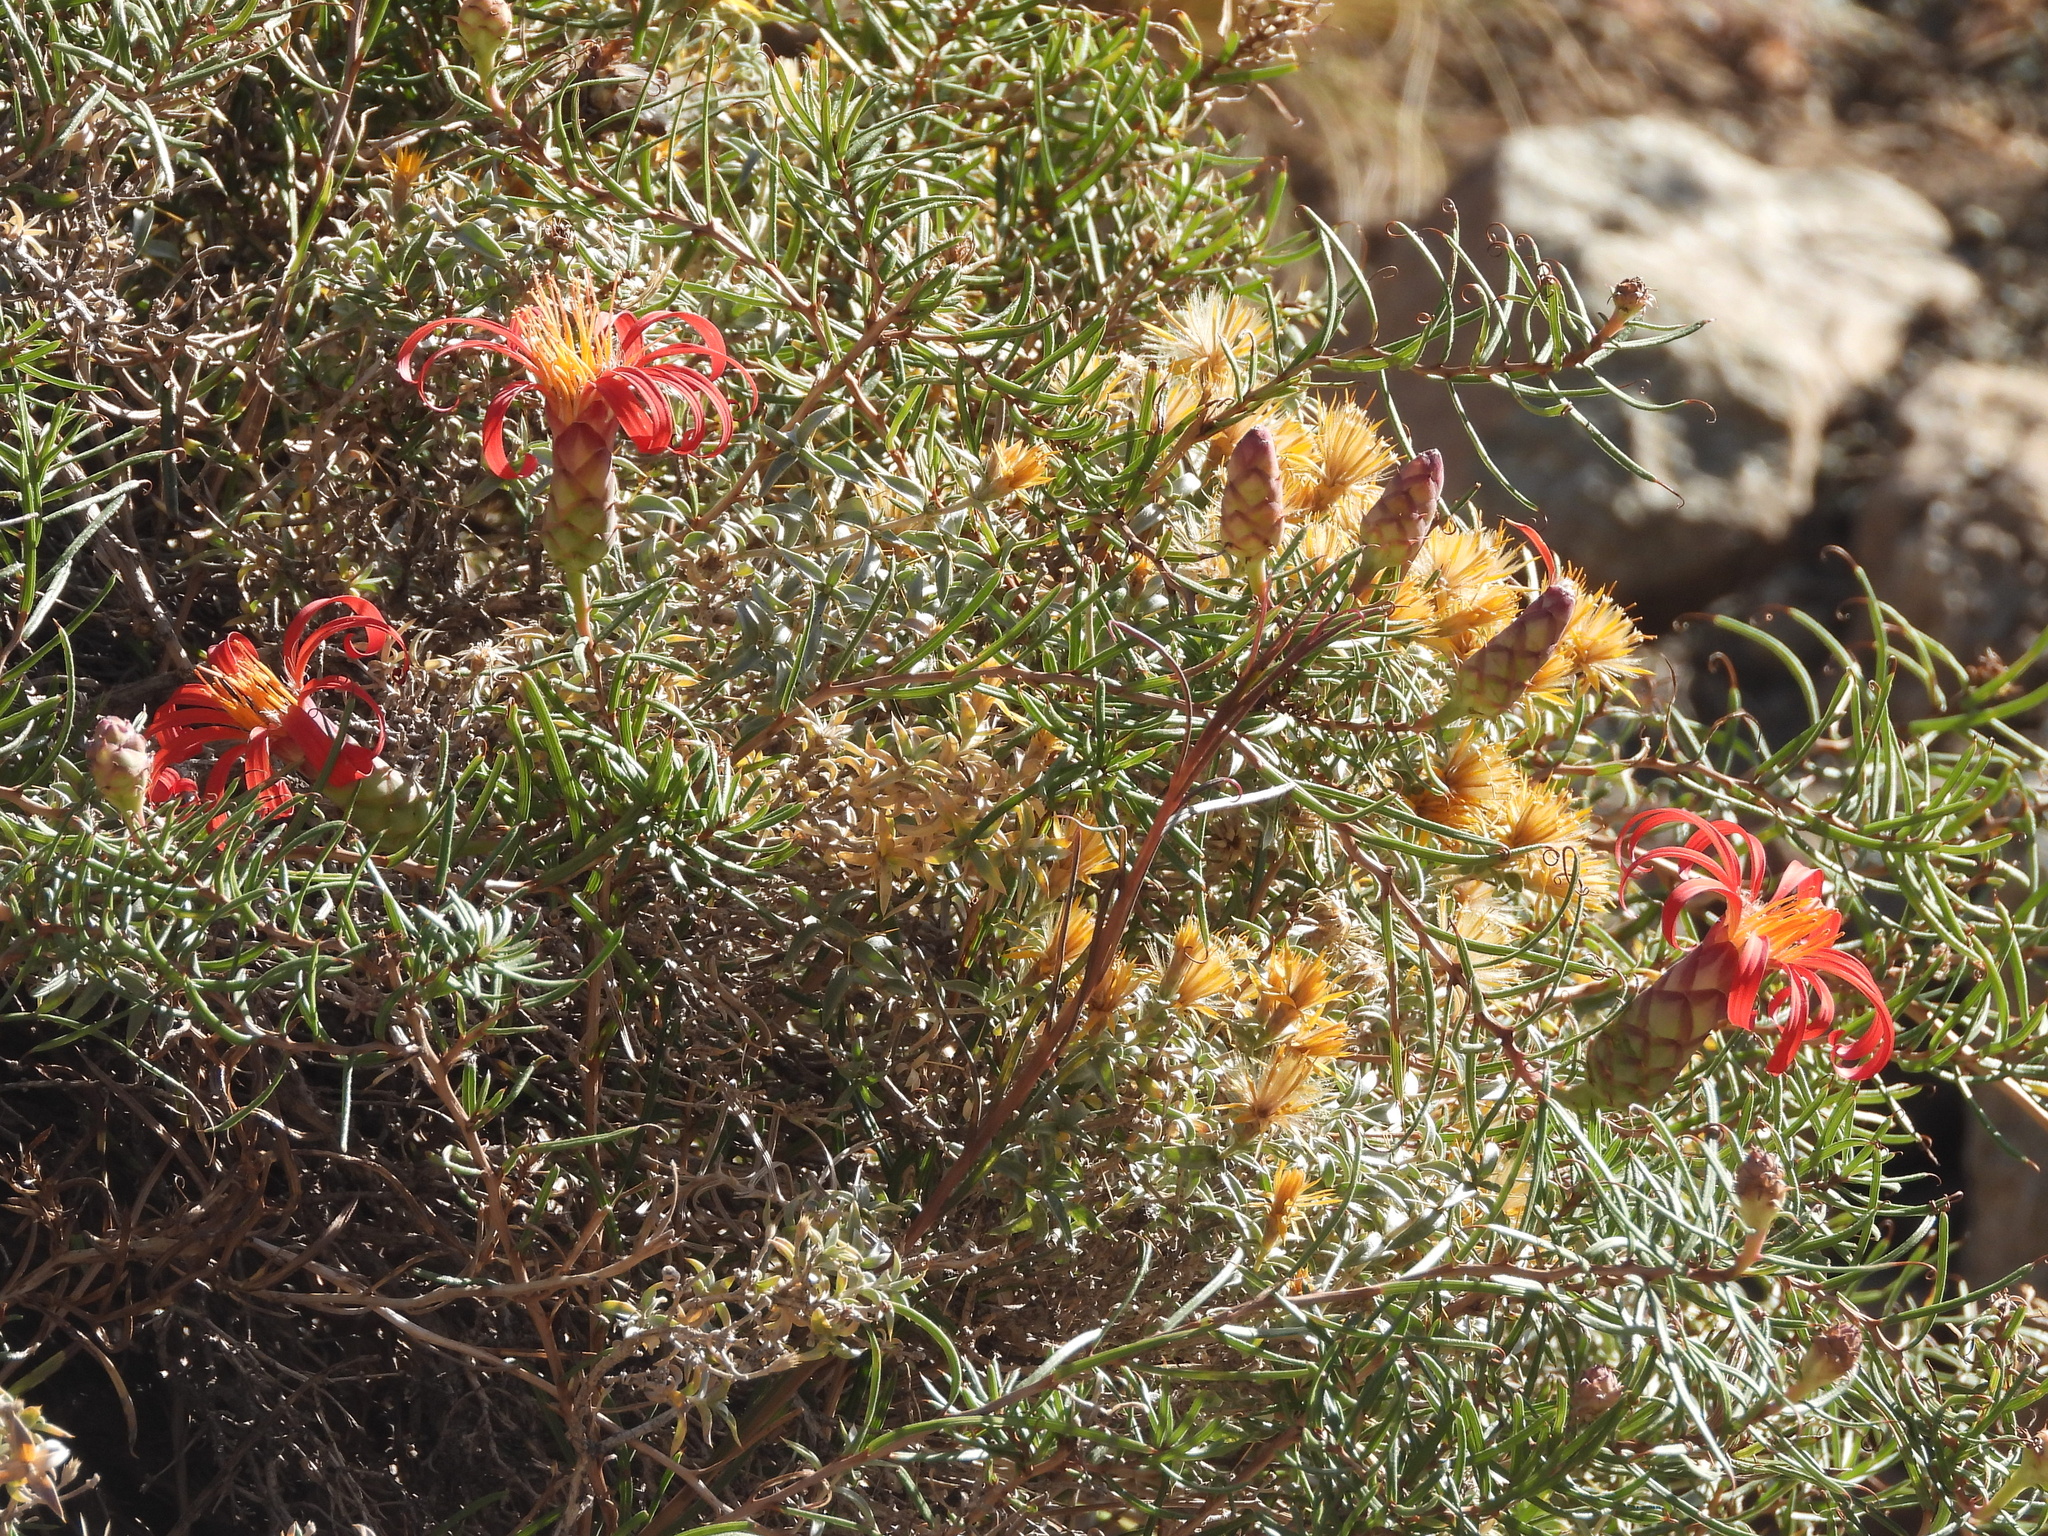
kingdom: Plantae
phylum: Tracheophyta
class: Magnoliopsida
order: Asterales
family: Asteraceae
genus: Mutisia
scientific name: Mutisia subulata
